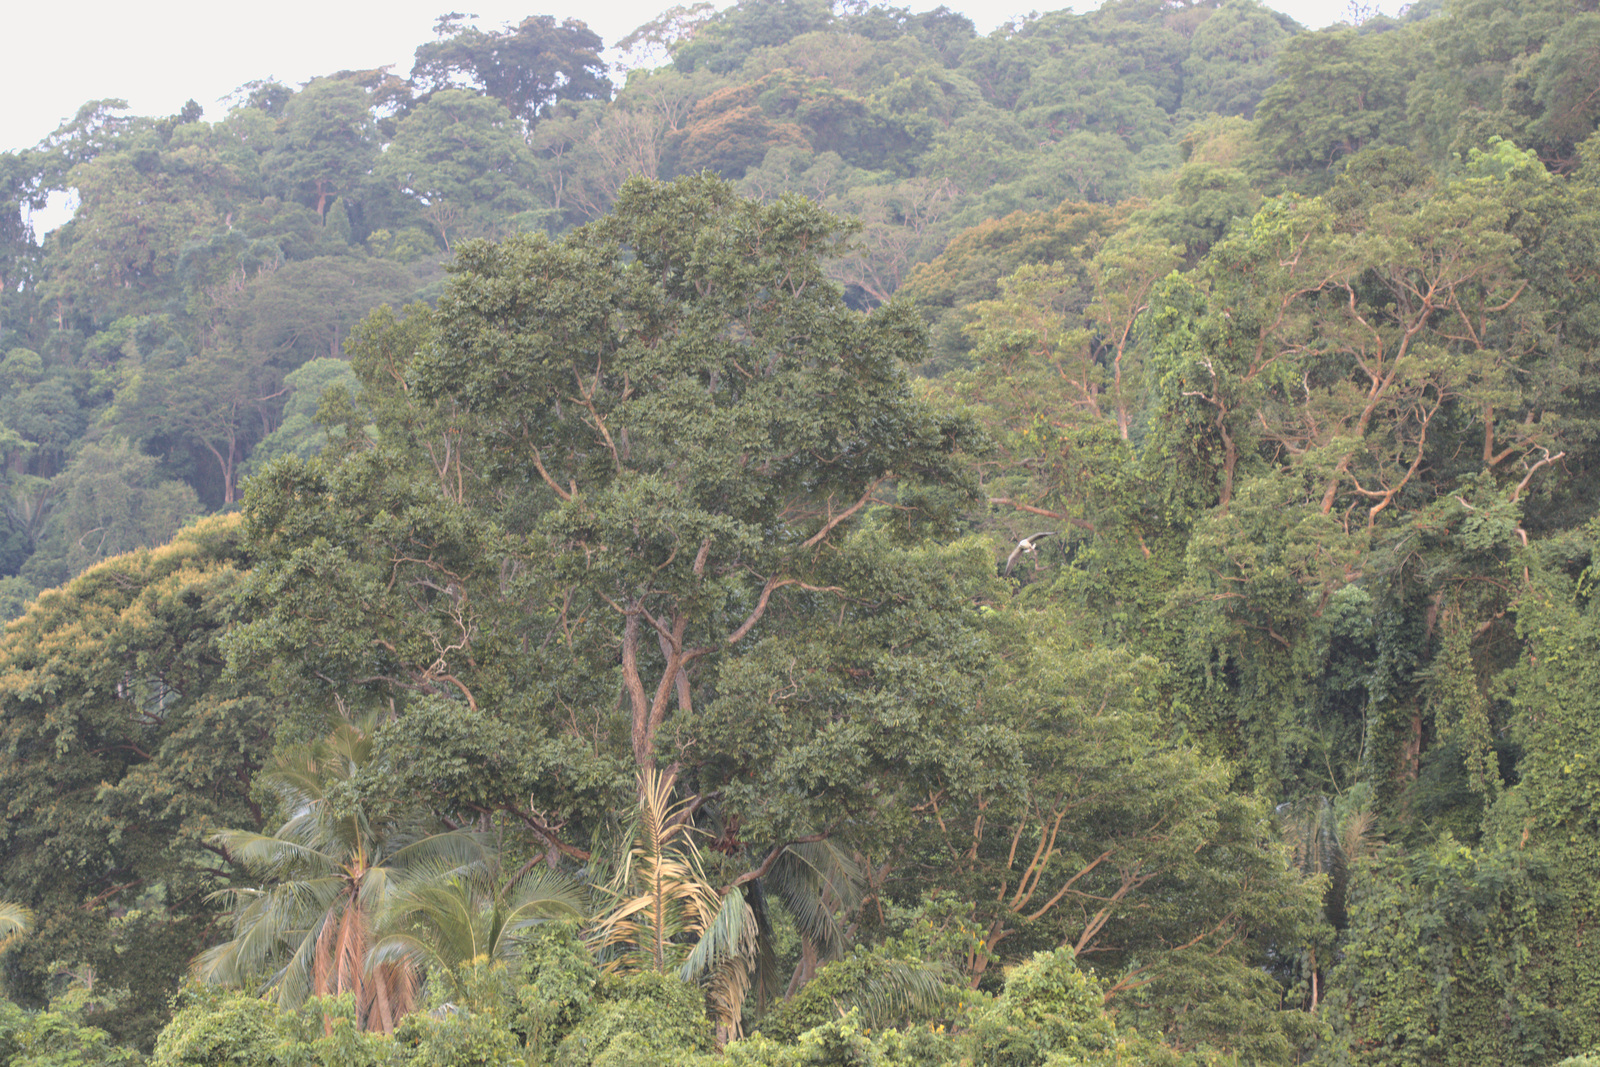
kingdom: Animalia
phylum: Chordata
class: Aves
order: Accipitriformes
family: Accipitridae
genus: Haliaeetus
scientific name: Haliaeetus leucogaster
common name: White-bellied sea eagle
